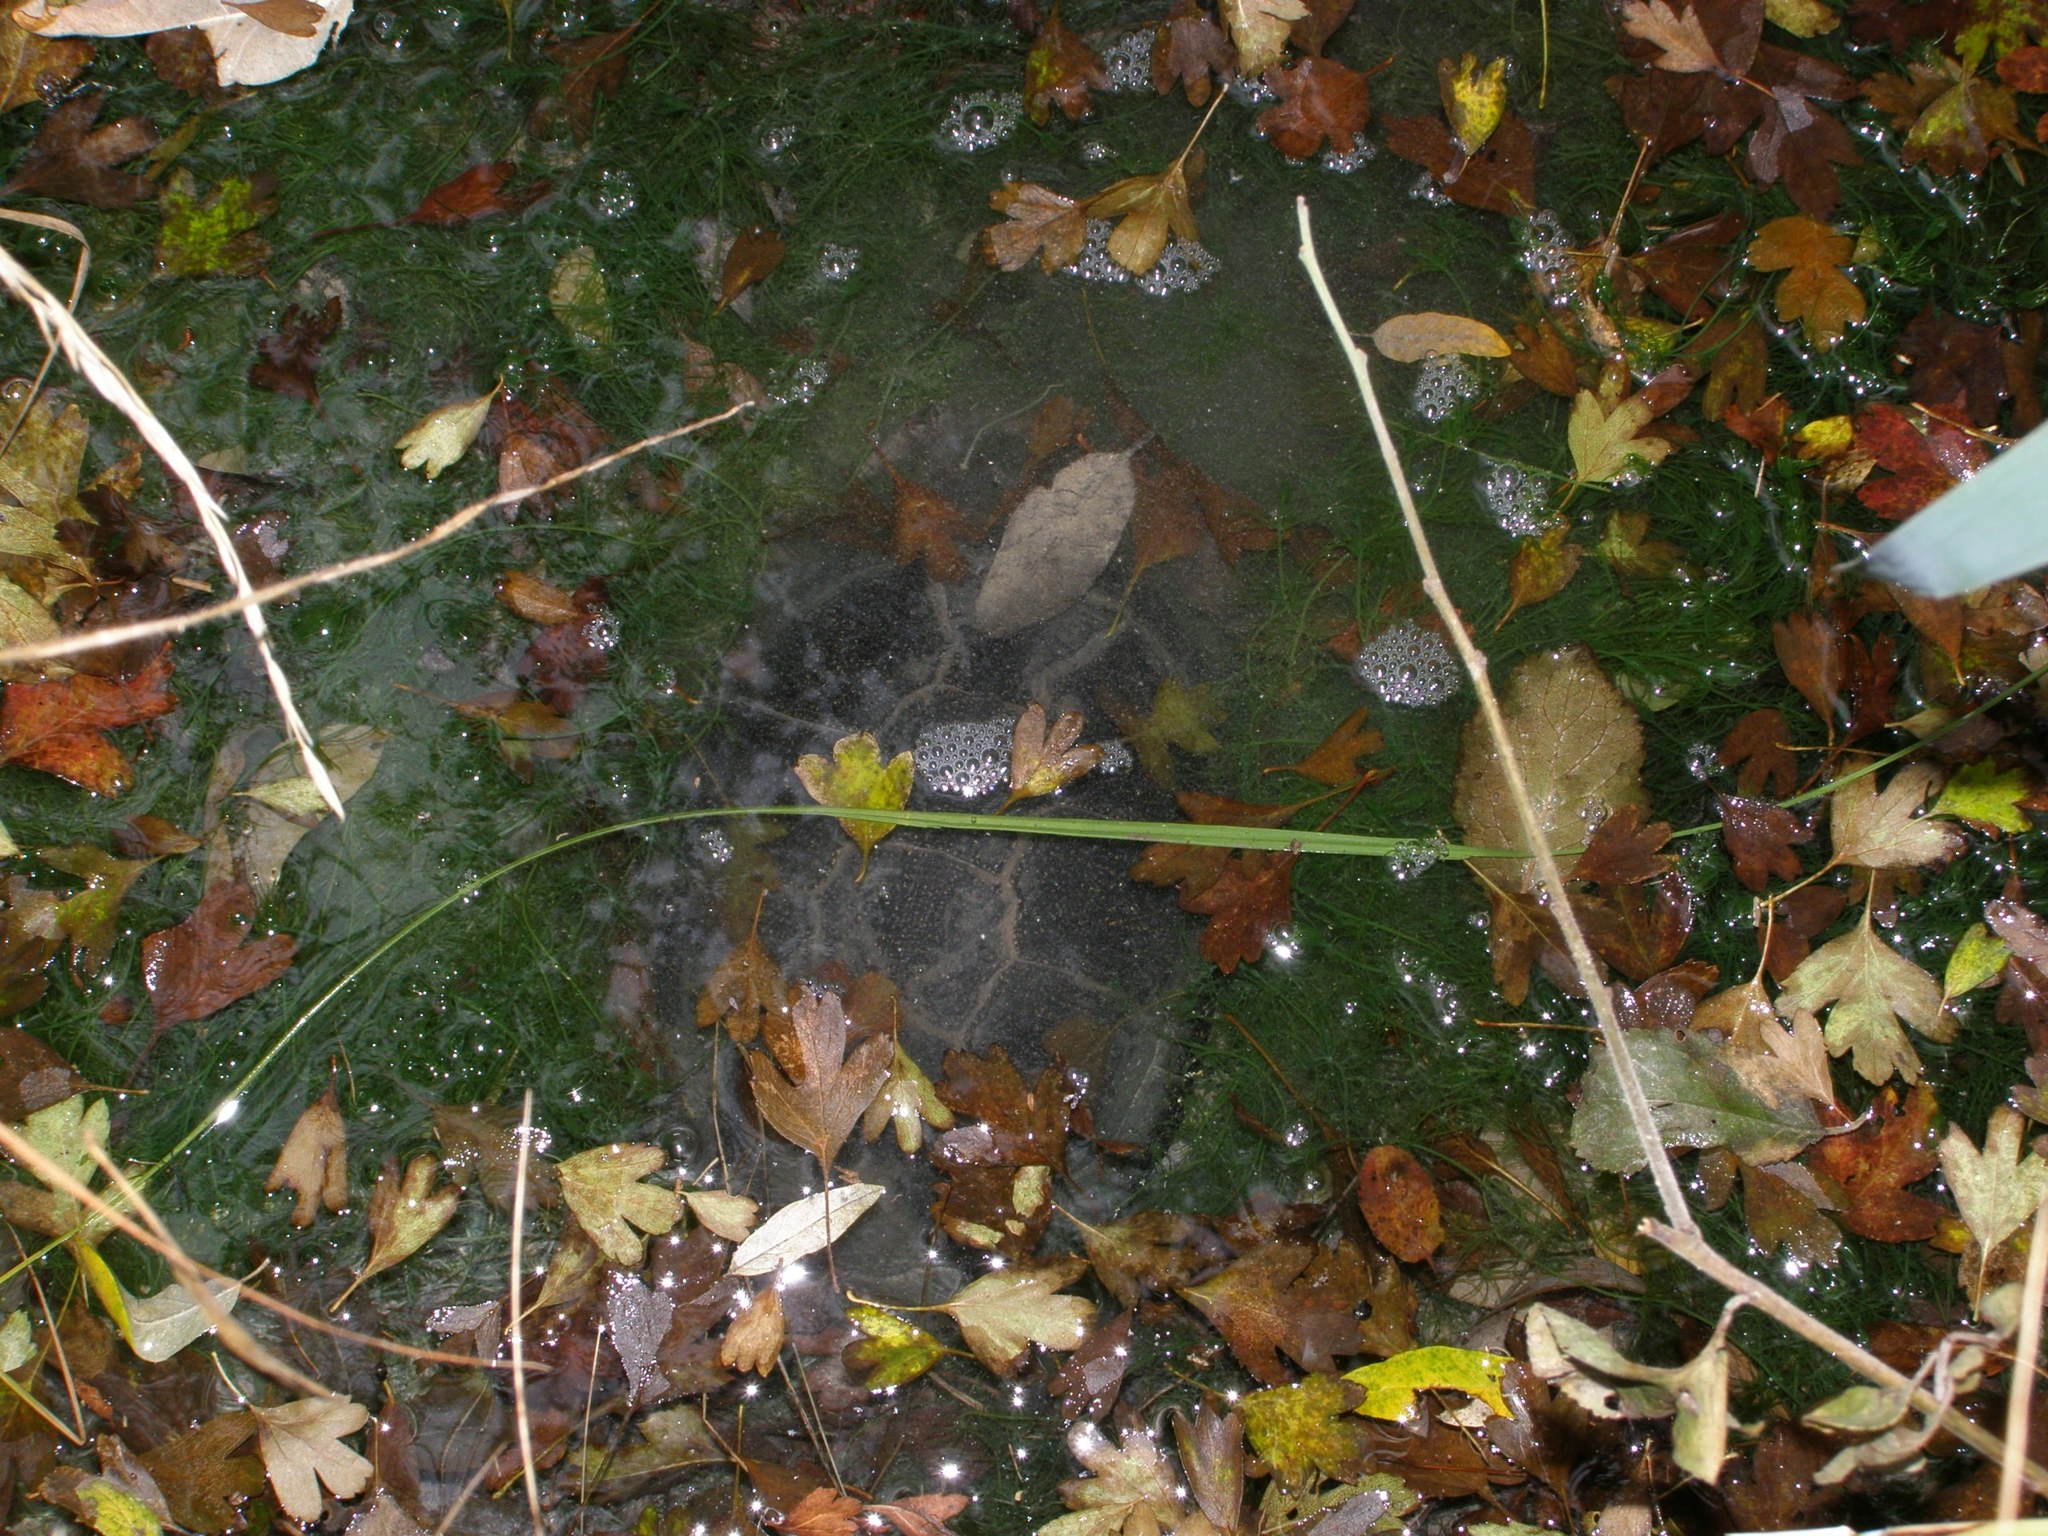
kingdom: Animalia
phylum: Chordata
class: Testudines
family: Emydidae
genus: Emys
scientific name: Emys orbicularis
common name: European pond turtle
